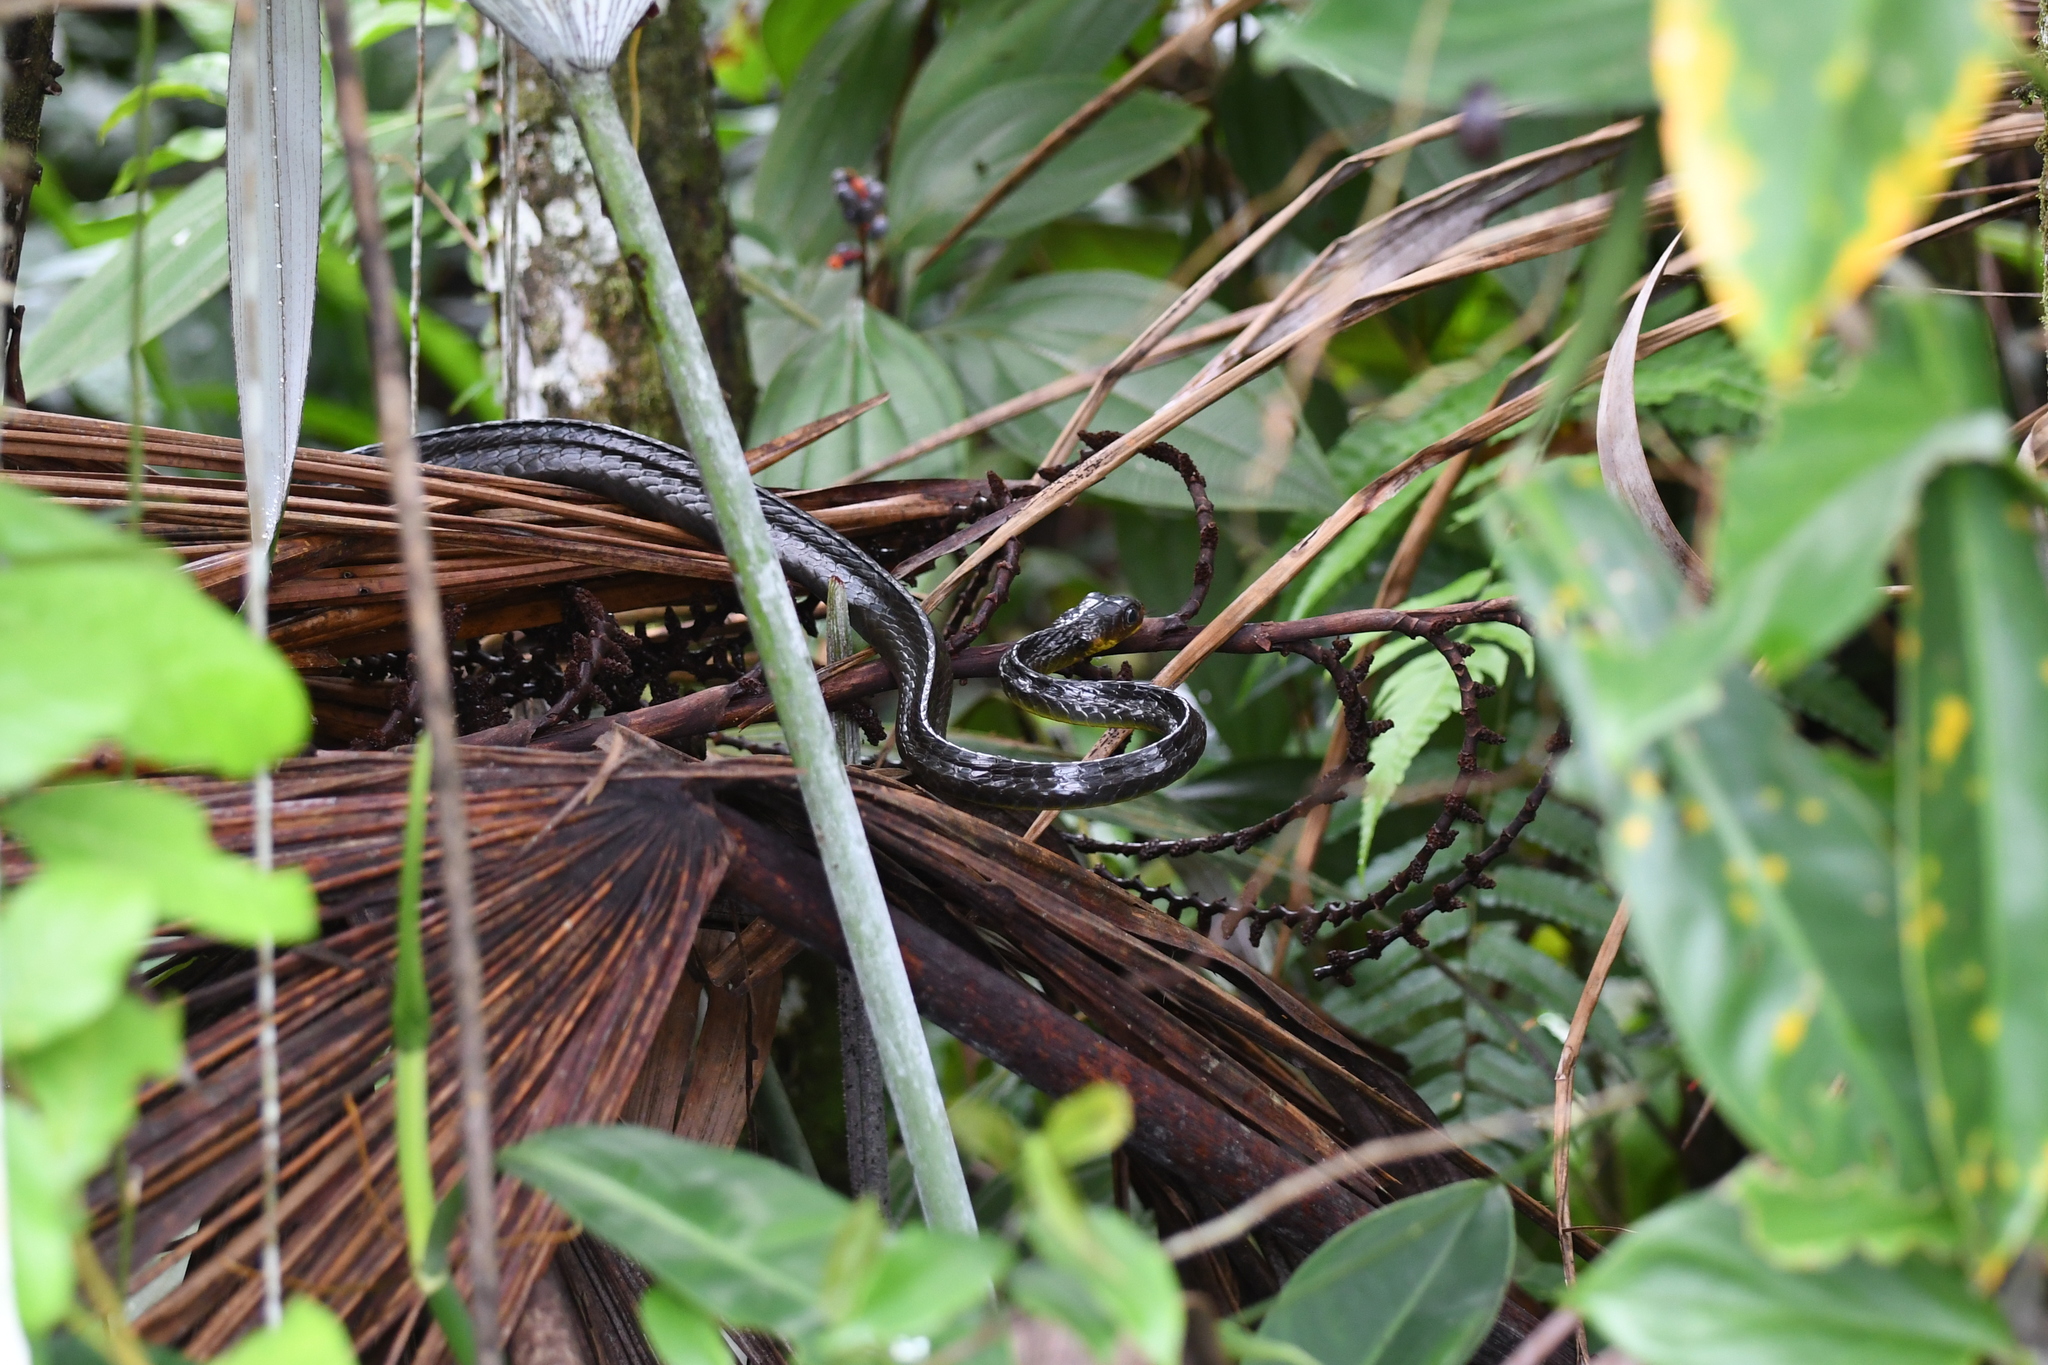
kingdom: Animalia
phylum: Chordata
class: Squamata
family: Colubridae
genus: Chironius
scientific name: Chironius multiventris
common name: South american sipo
